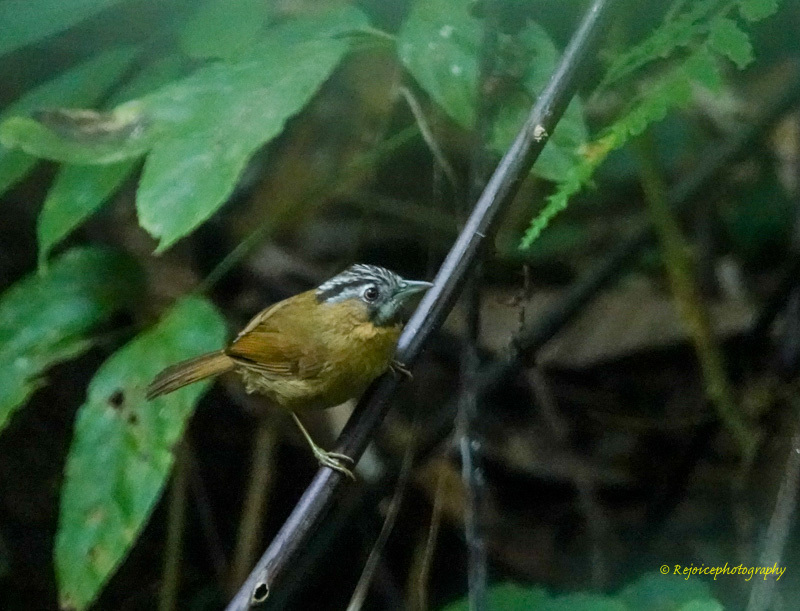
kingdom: Animalia
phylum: Chordata
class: Aves
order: Passeriformes
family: Timaliidae
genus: Stachyris
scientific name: Stachyris nigriceps
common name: Grey-throated babbler
